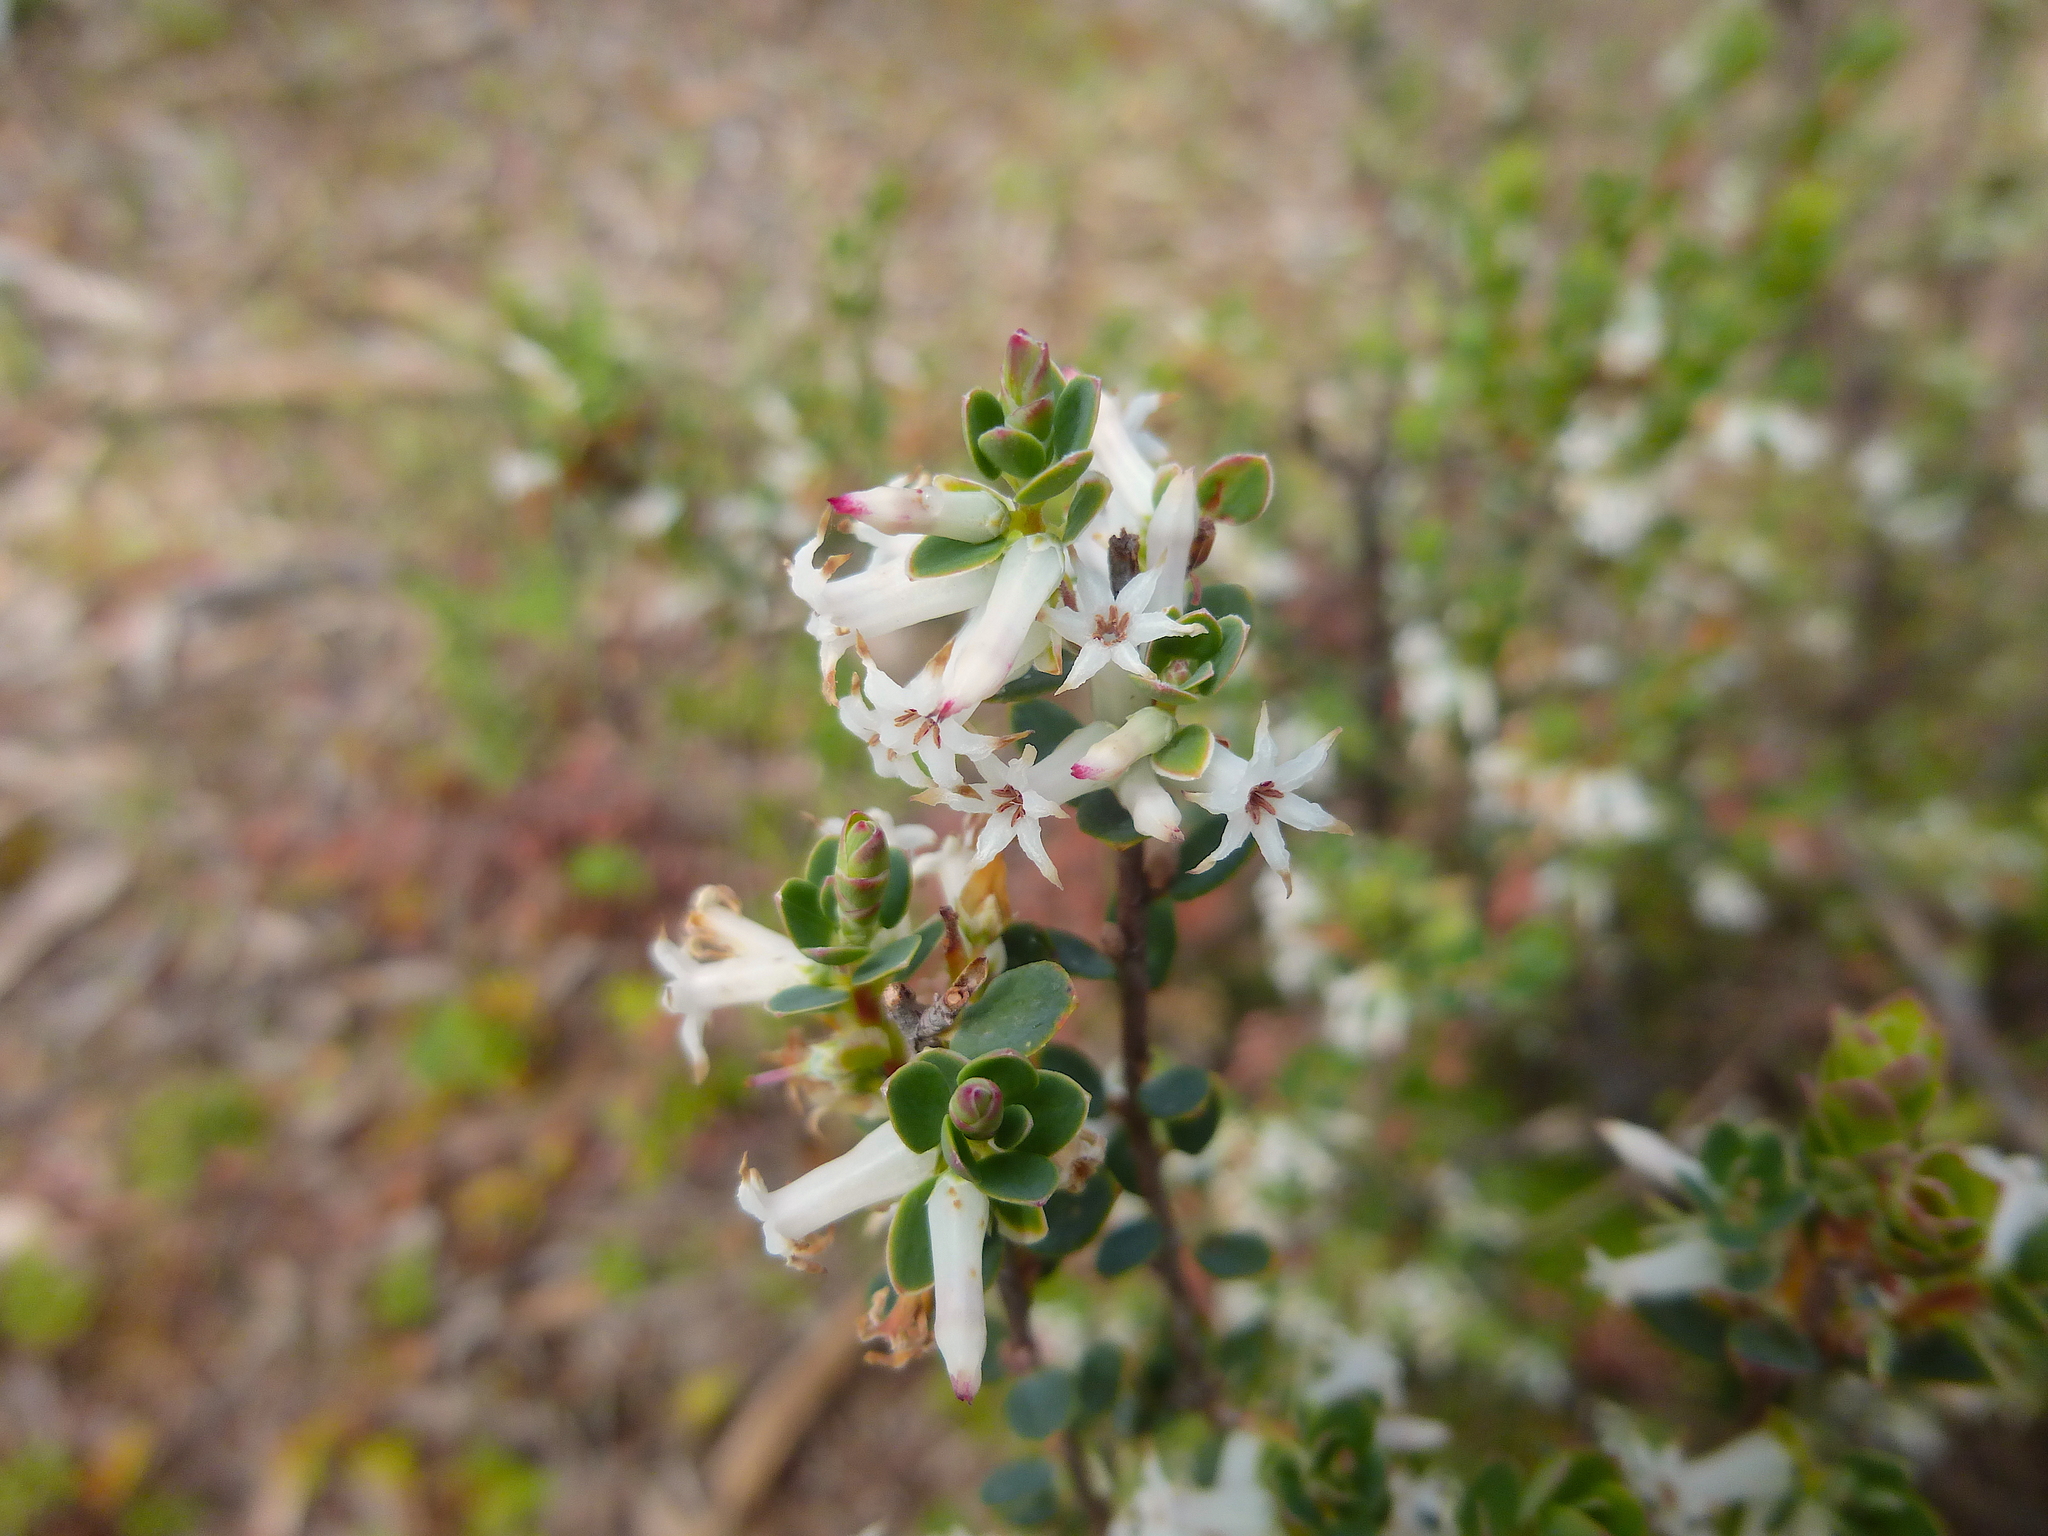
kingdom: Plantae
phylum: Tracheophyta
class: Magnoliopsida
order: Ericales
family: Ericaceae
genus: Brachyloma
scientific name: Brachyloma daphnoides
